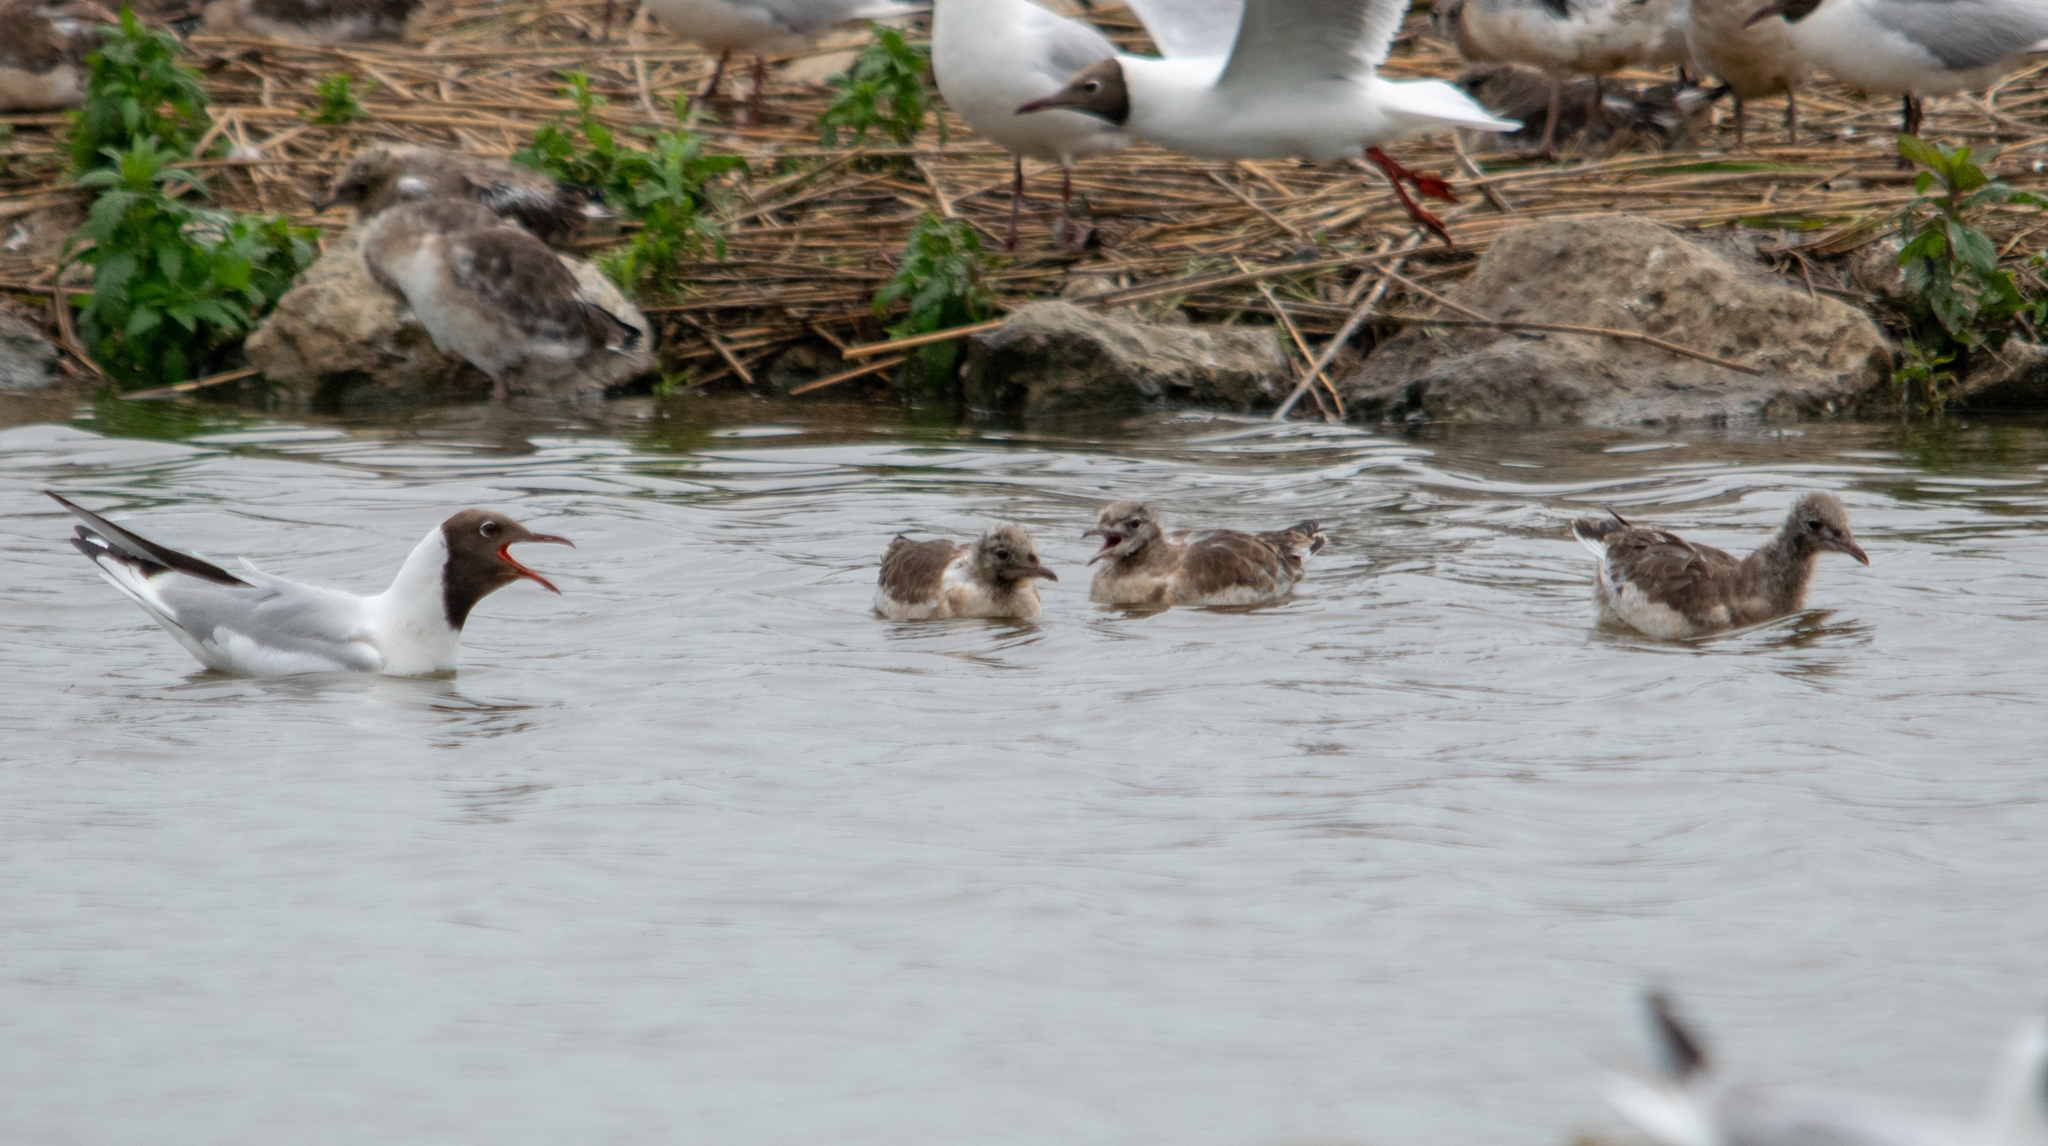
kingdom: Animalia
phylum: Chordata
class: Aves
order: Charadriiformes
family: Laridae
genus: Chroicocephalus
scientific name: Chroicocephalus ridibundus
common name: Black-headed gull
